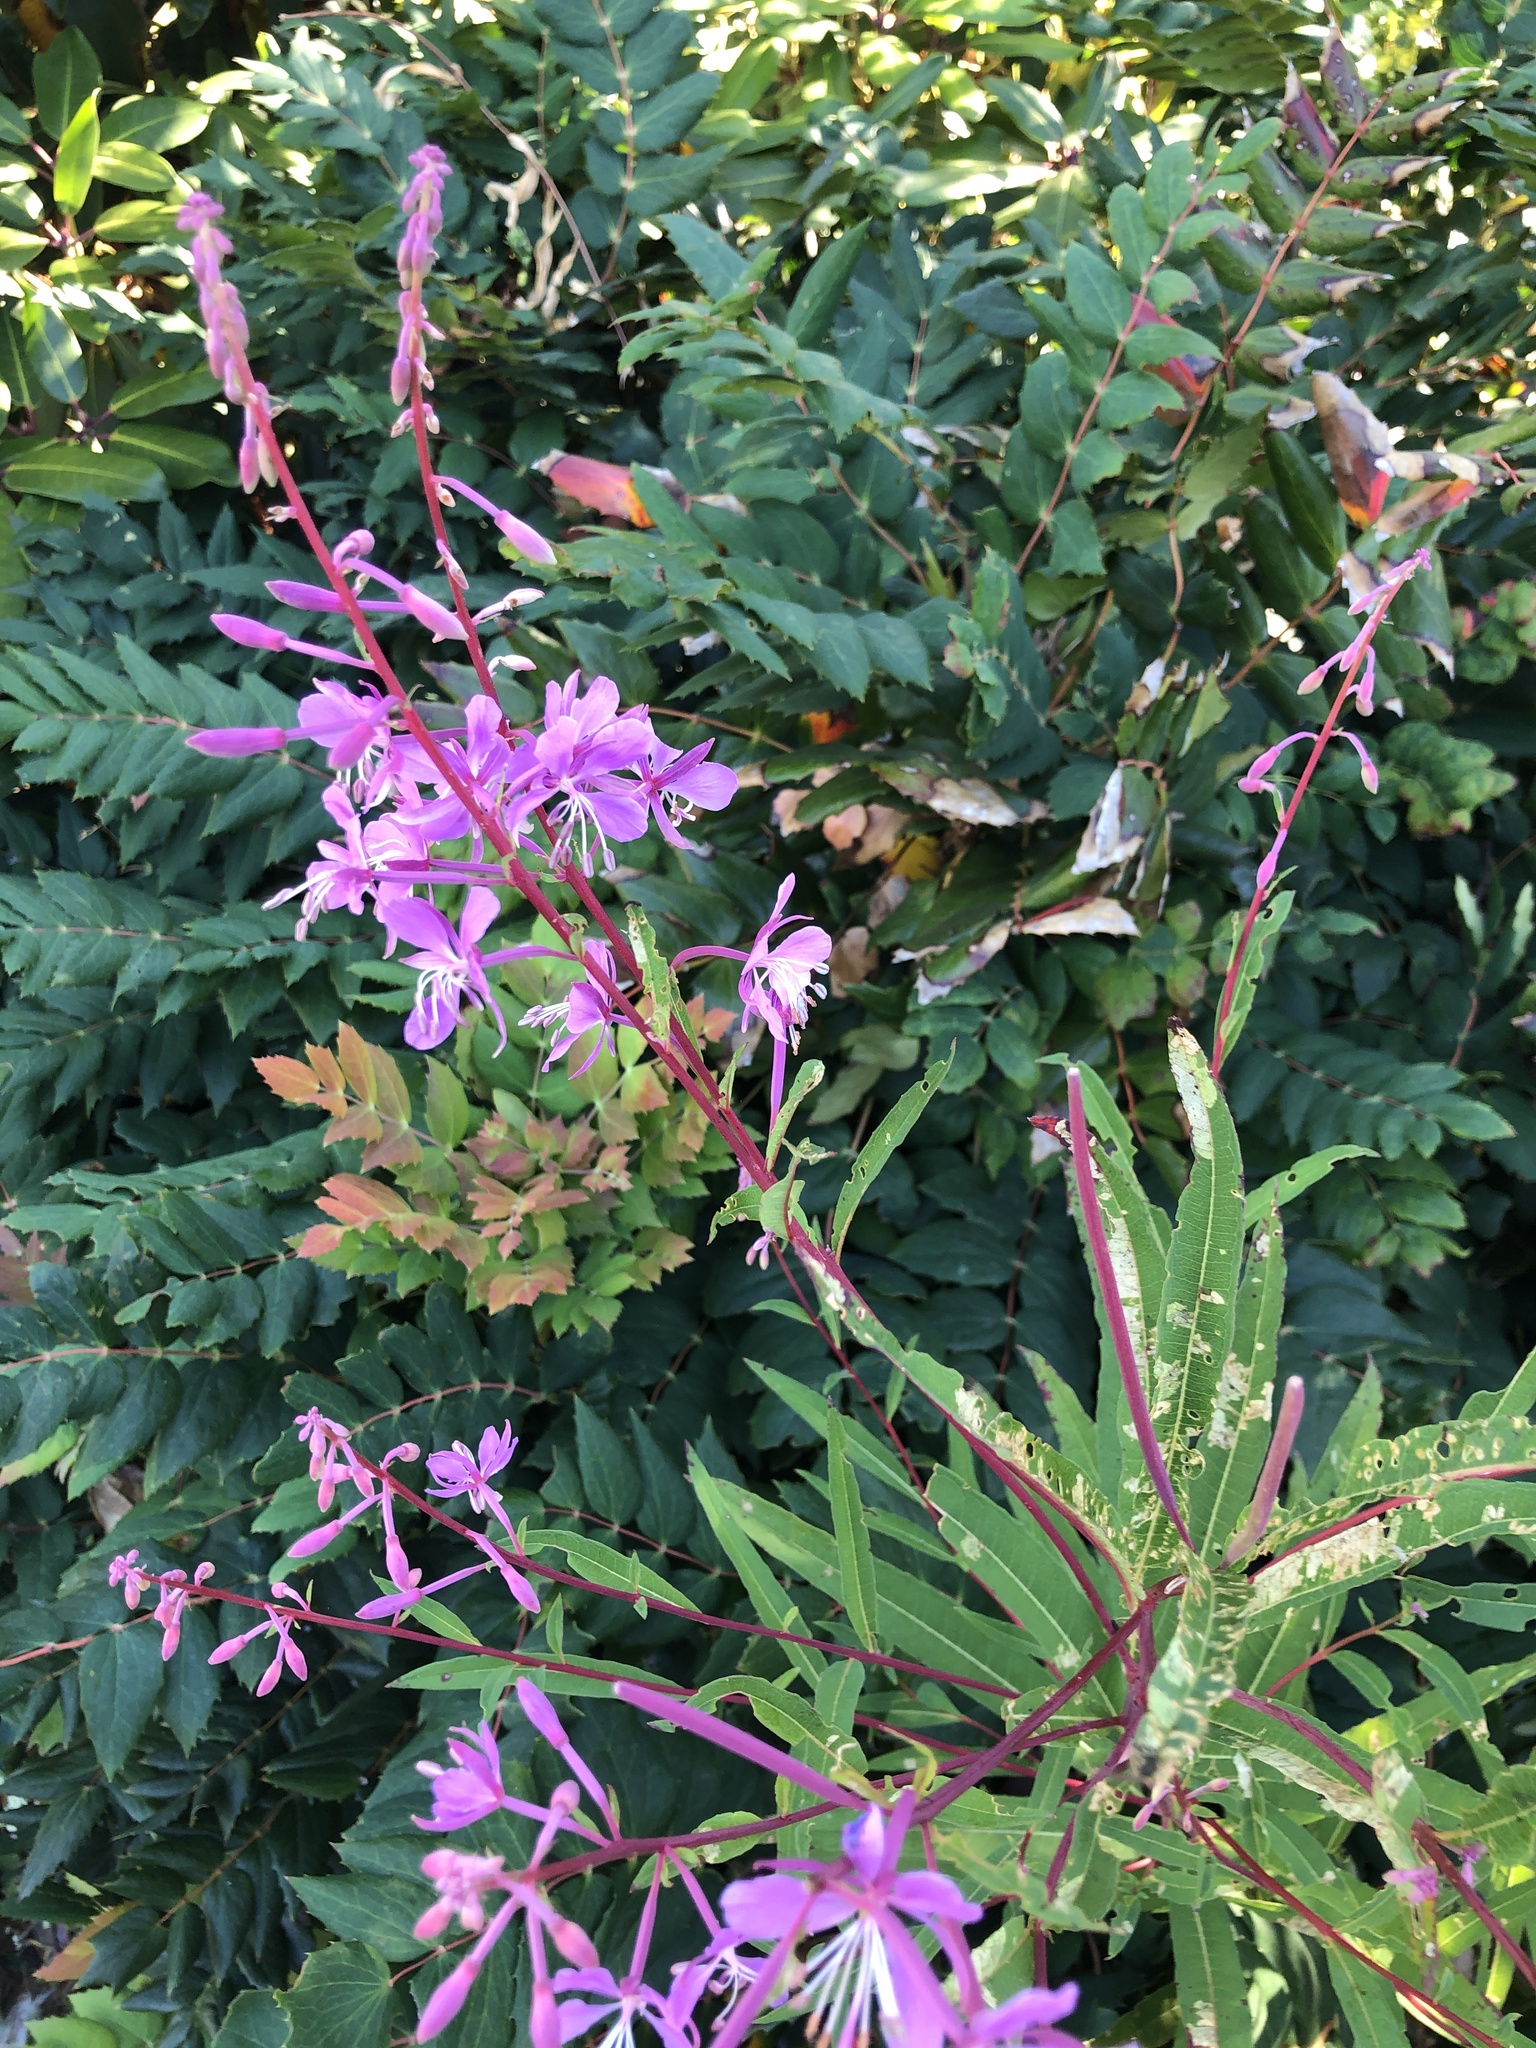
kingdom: Plantae
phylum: Tracheophyta
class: Magnoliopsida
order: Myrtales
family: Onagraceae
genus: Chamaenerion
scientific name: Chamaenerion angustifolium
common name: Fireweed
